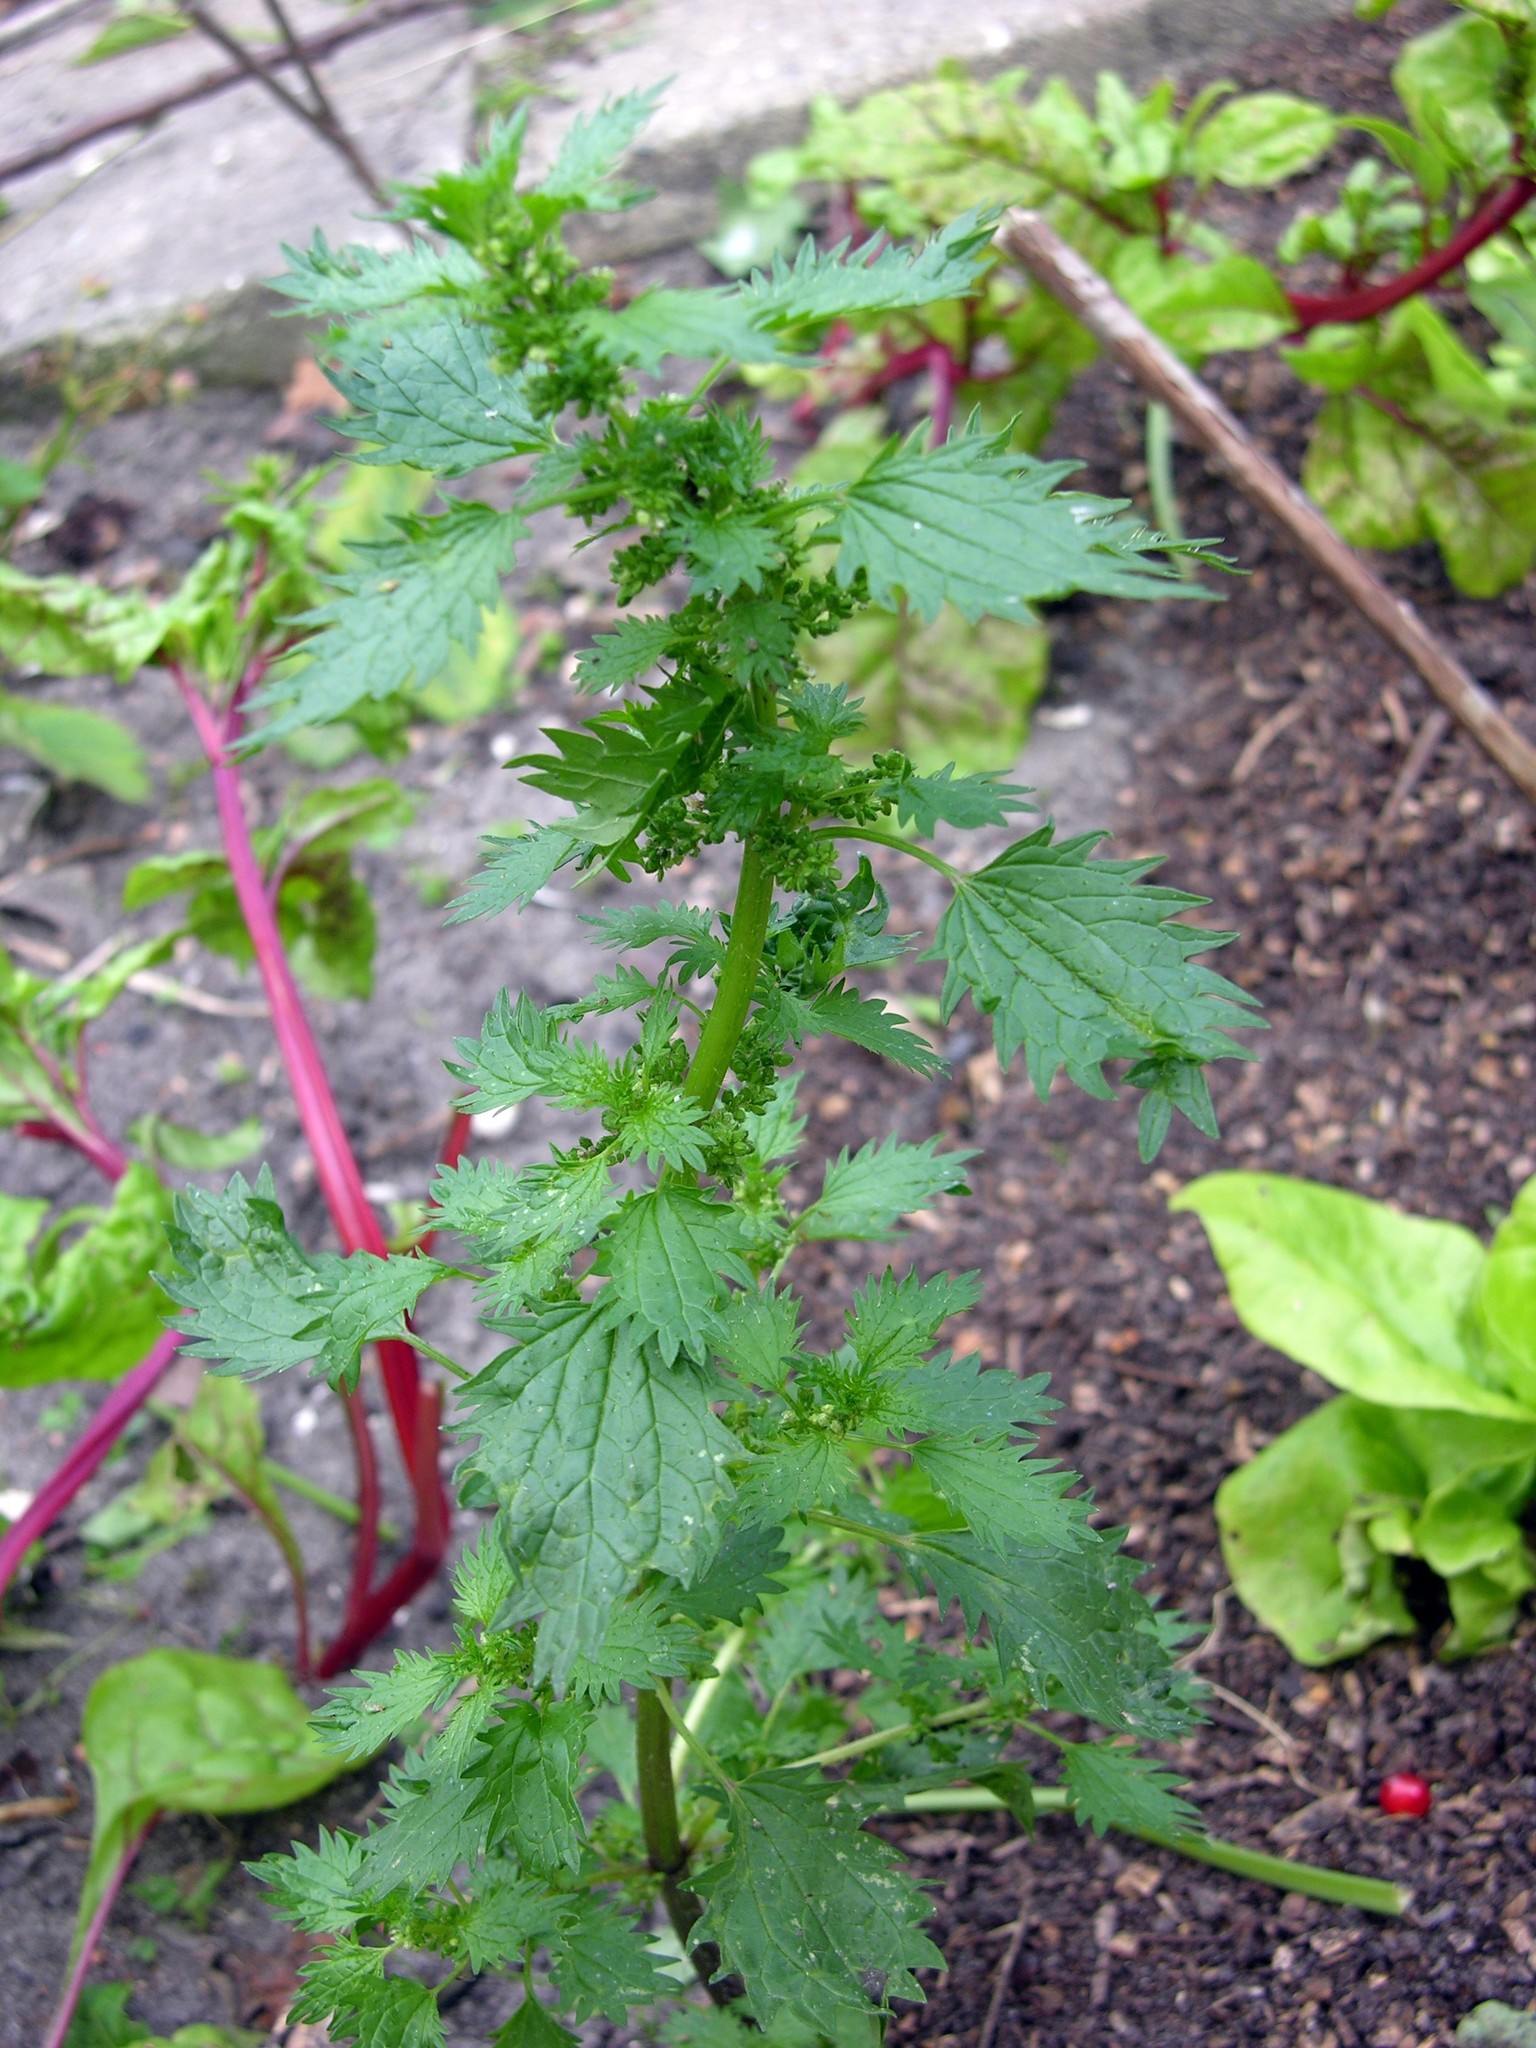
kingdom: Plantae
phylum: Tracheophyta
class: Magnoliopsida
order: Rosales
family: Urticaceae
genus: Urtica
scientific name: Urtica urens
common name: Dwarf nettle
